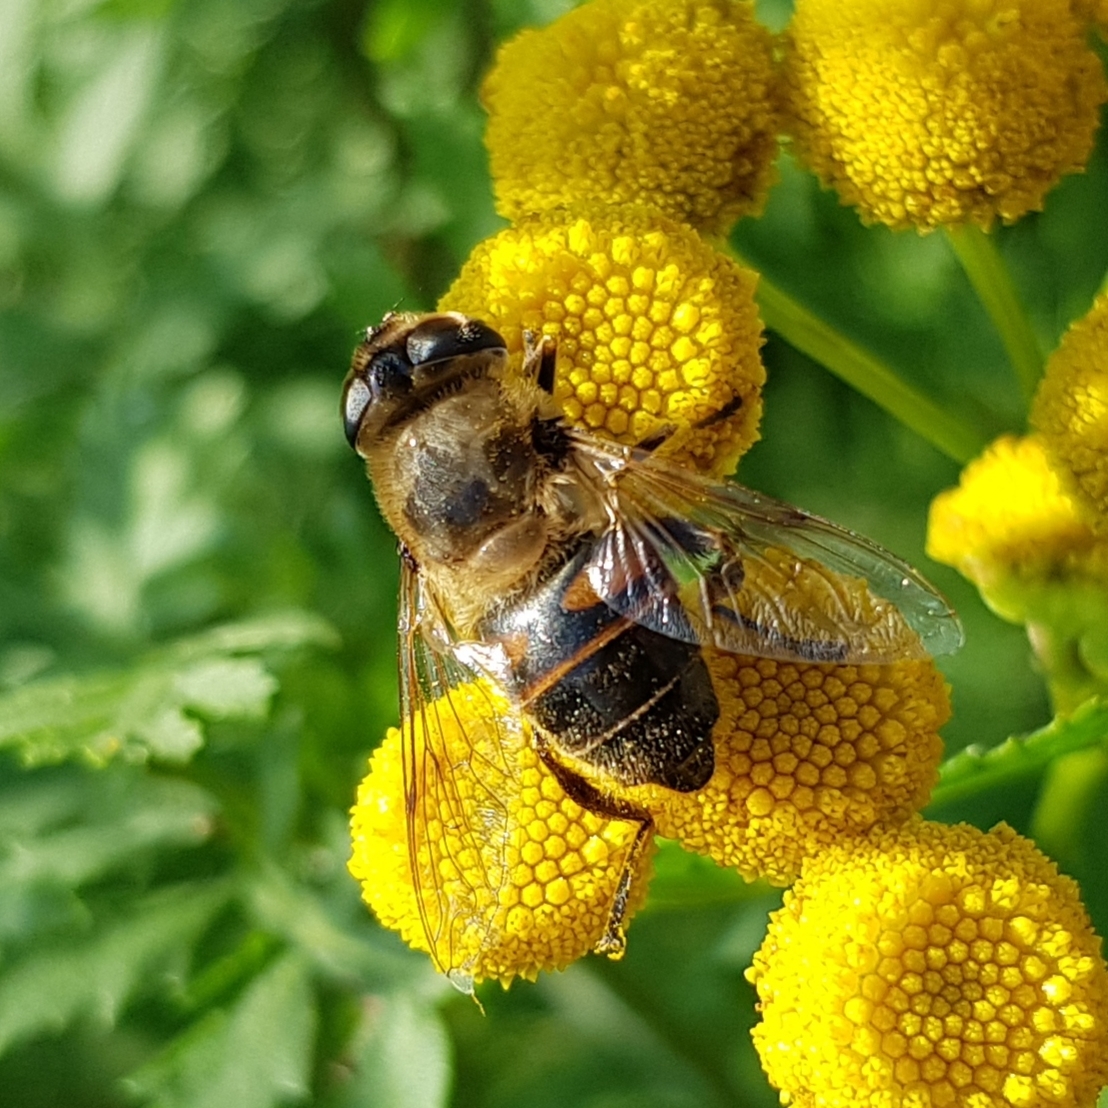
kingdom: Animalia
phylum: Arthropoda
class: Insecta
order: Diptera
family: Syrphidae
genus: Eristalis
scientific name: Eristalis tenax
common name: Drone fly
